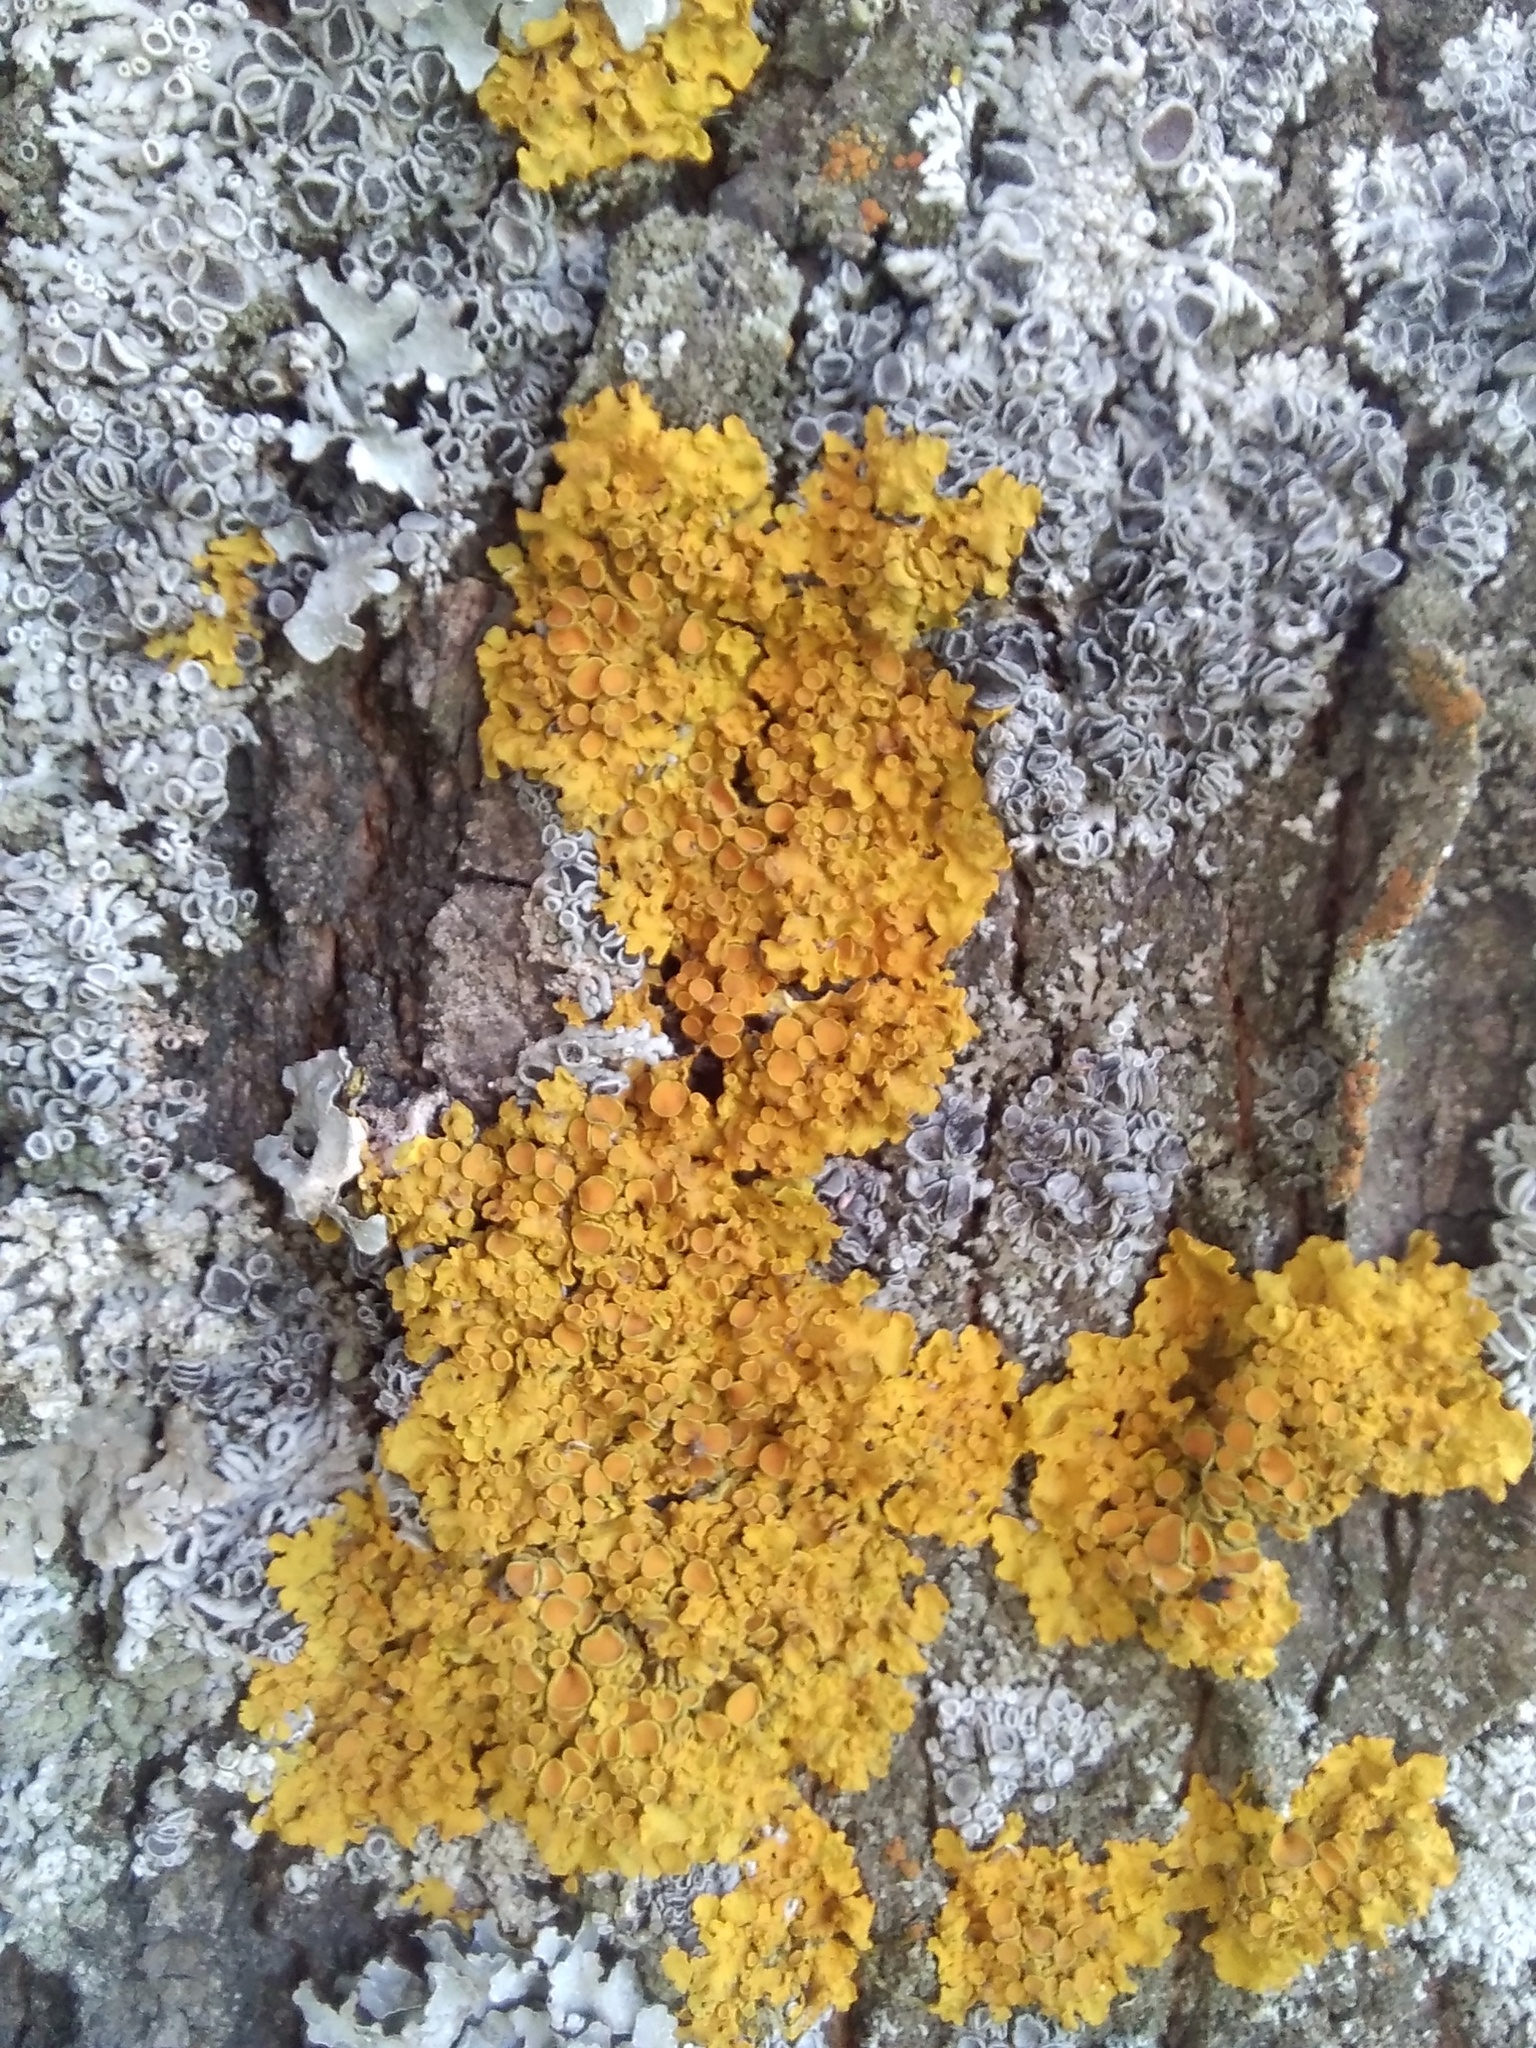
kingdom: Fungi
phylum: Ascomycota
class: Lecanoromycetes
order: Teloschistales
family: Teloschistaceae
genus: Xanthoria
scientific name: Xanthoria parietina
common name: Common orange lichen
